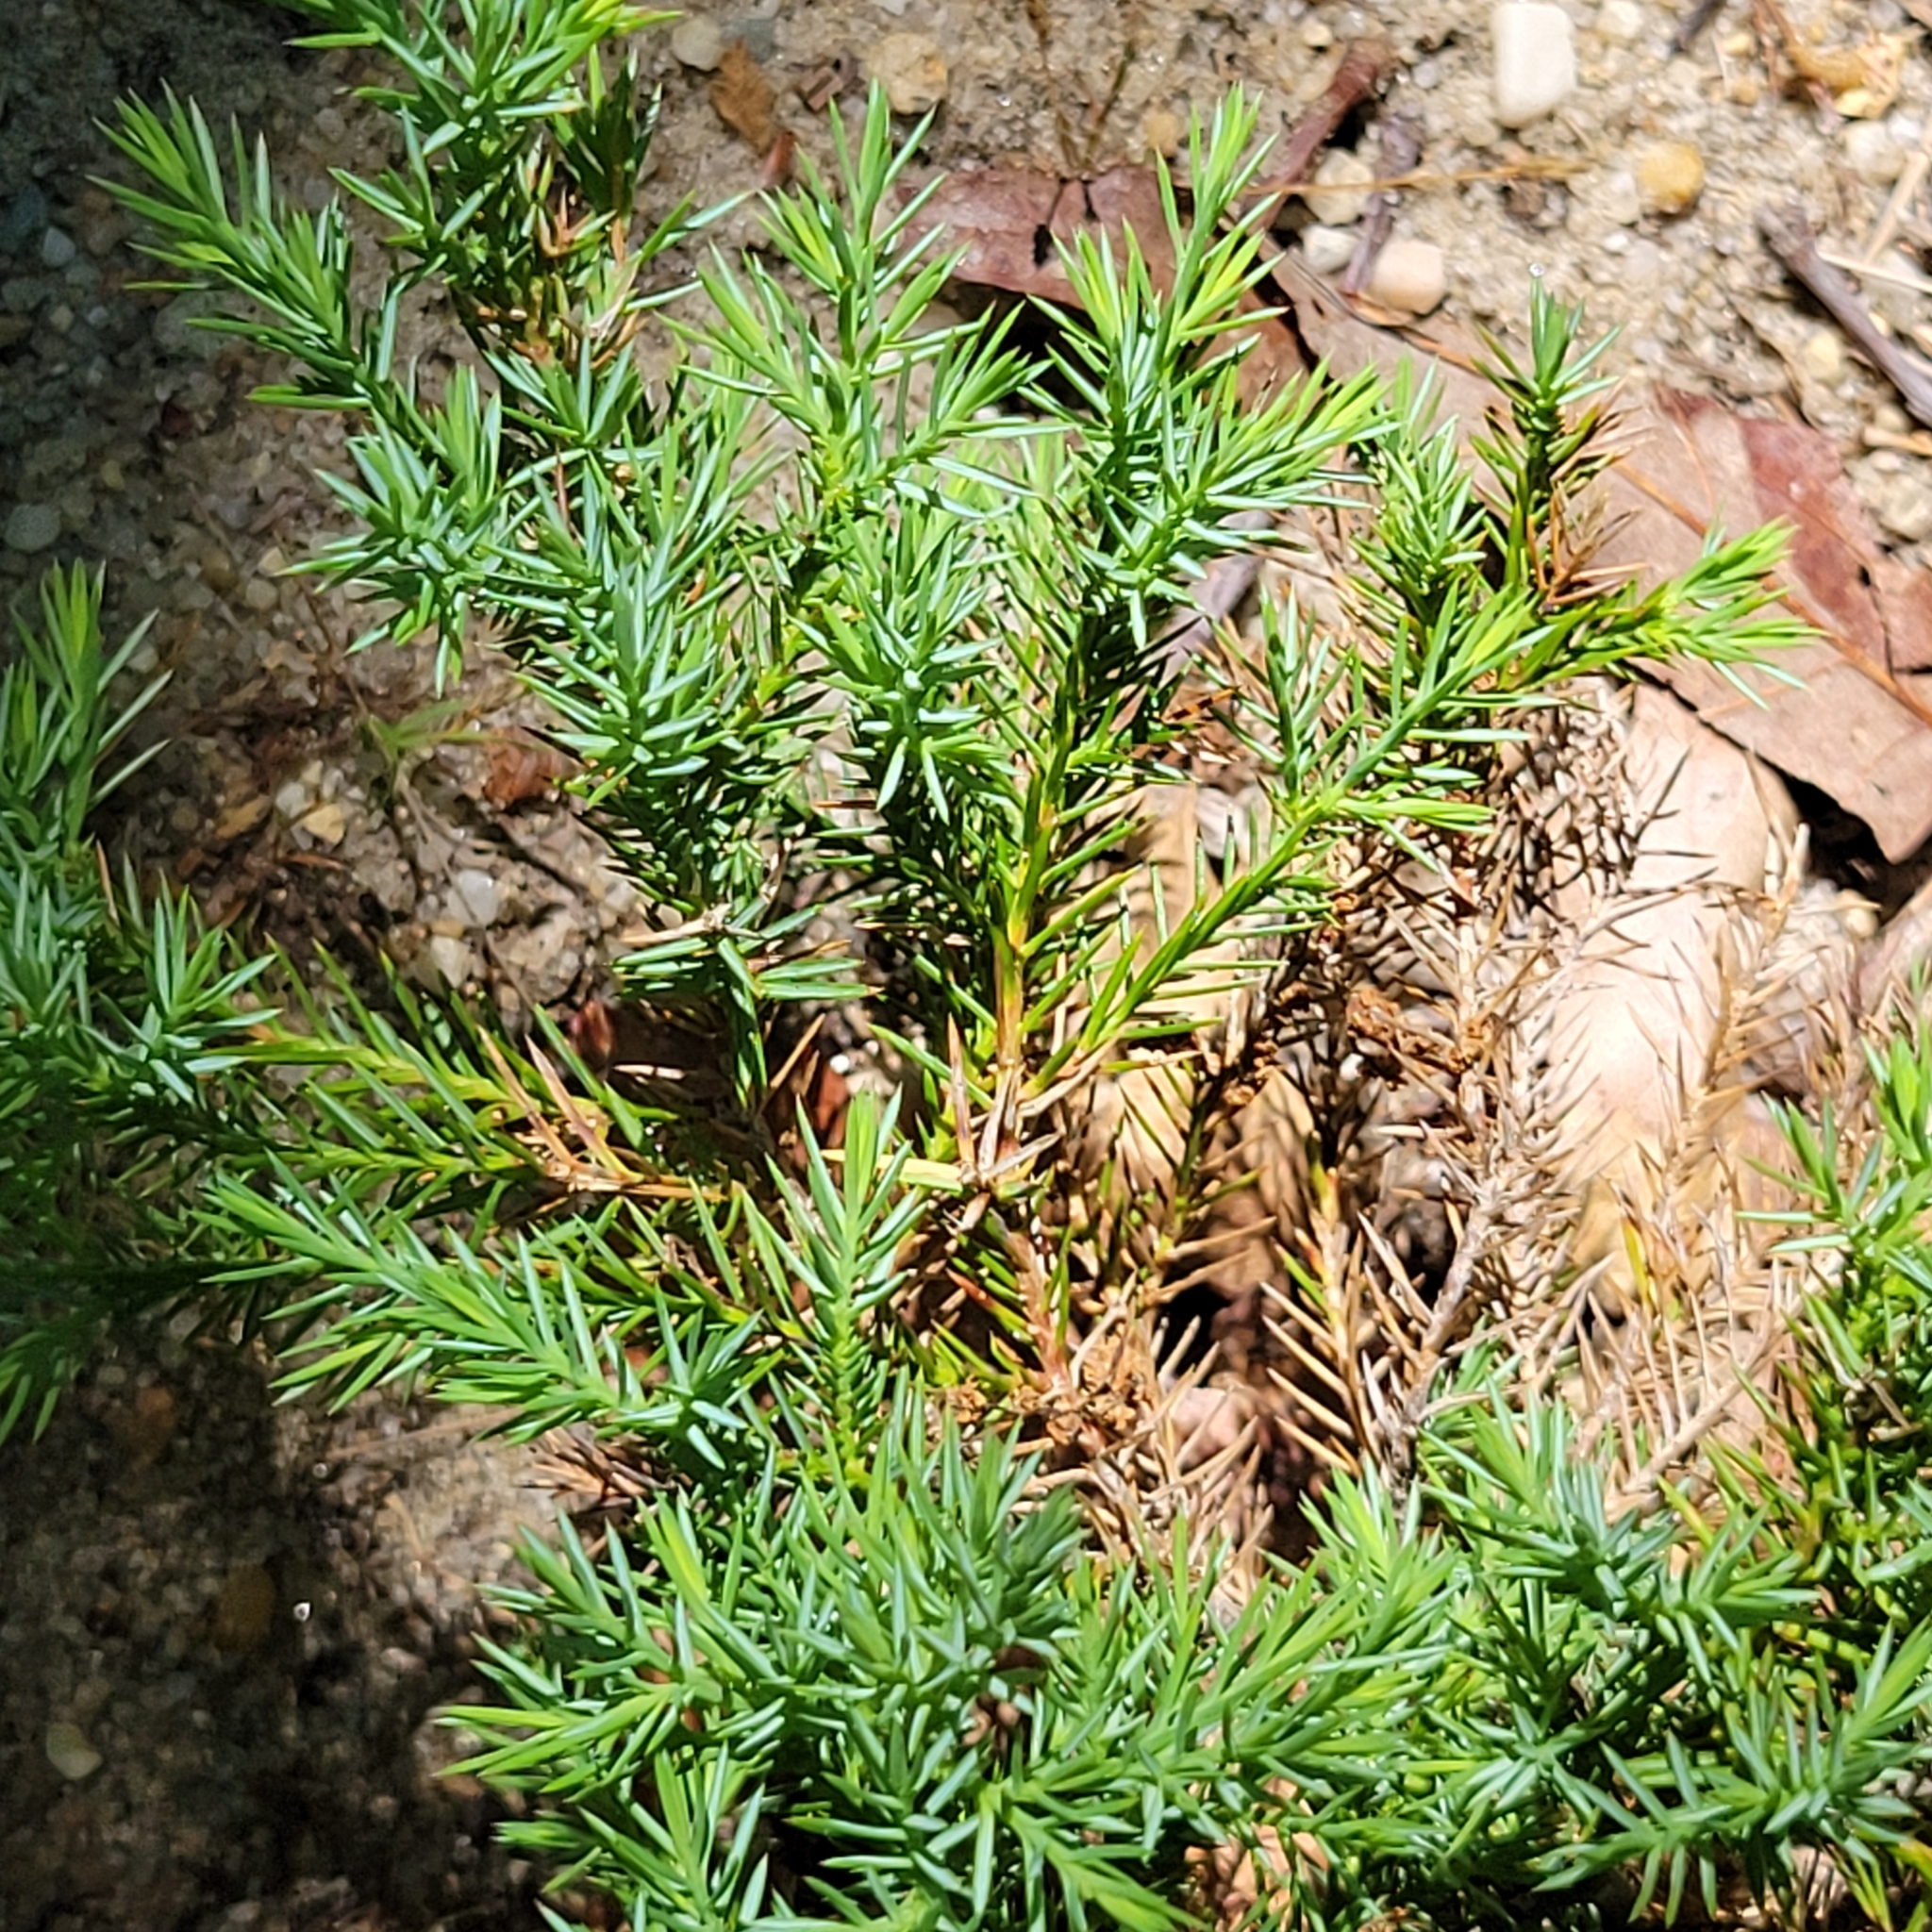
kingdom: Plantae
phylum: Tracheophyta
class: Pinopsida
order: Pinales
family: Cupressaceae
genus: Juniperus
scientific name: Juniperus virginiana
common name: Red juniper
